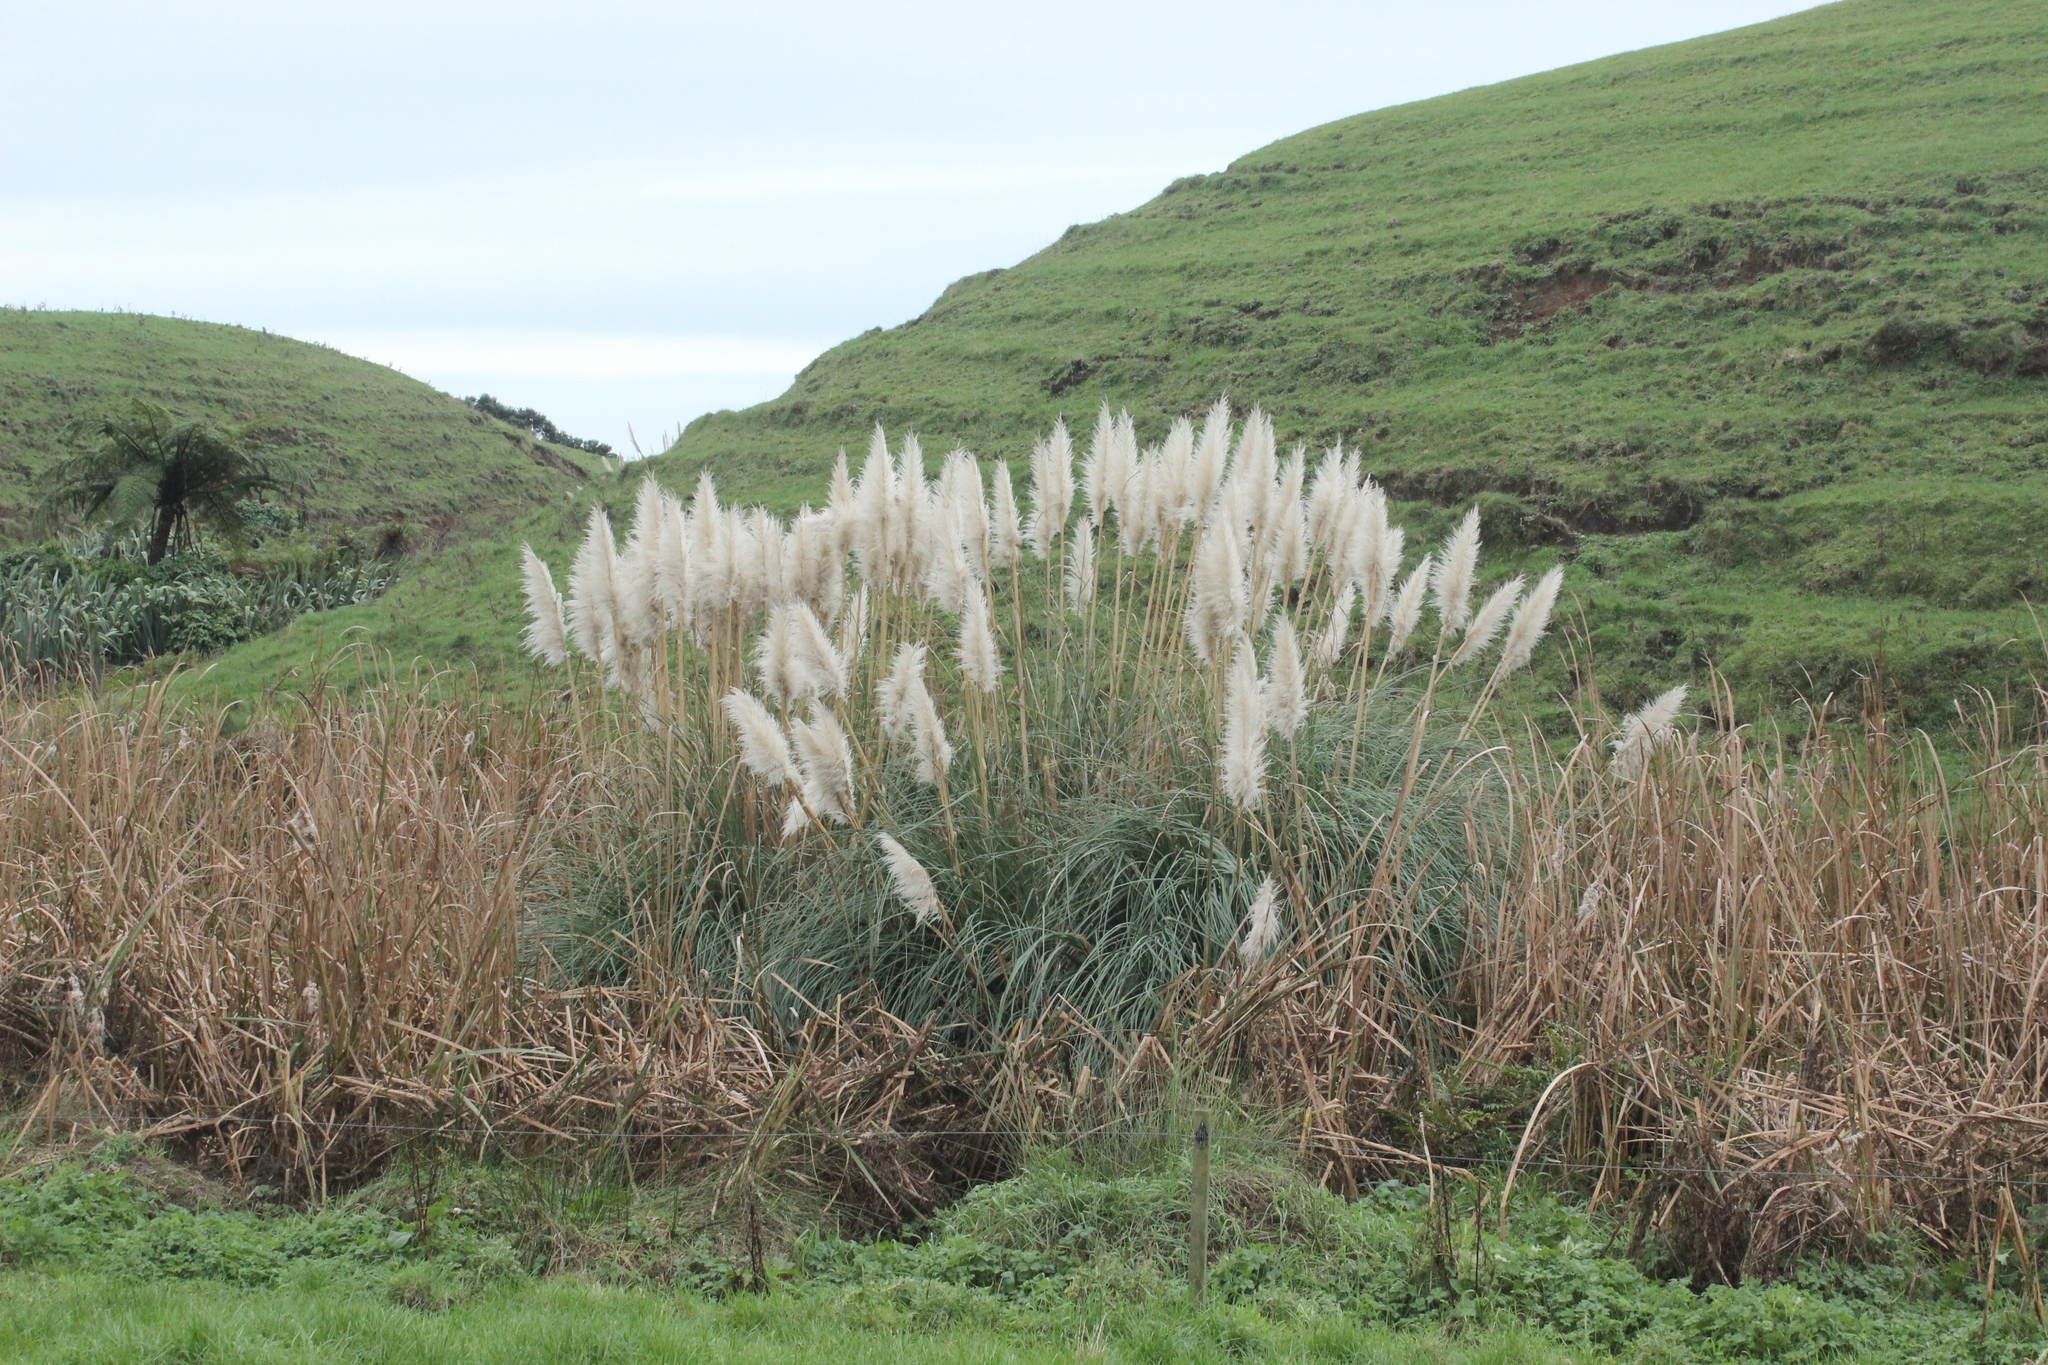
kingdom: Plantae
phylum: Tracheophyta
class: Liliopsida
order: Poales
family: Typhaceae
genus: Typha
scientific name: Typha orientalis
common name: Bullrush
